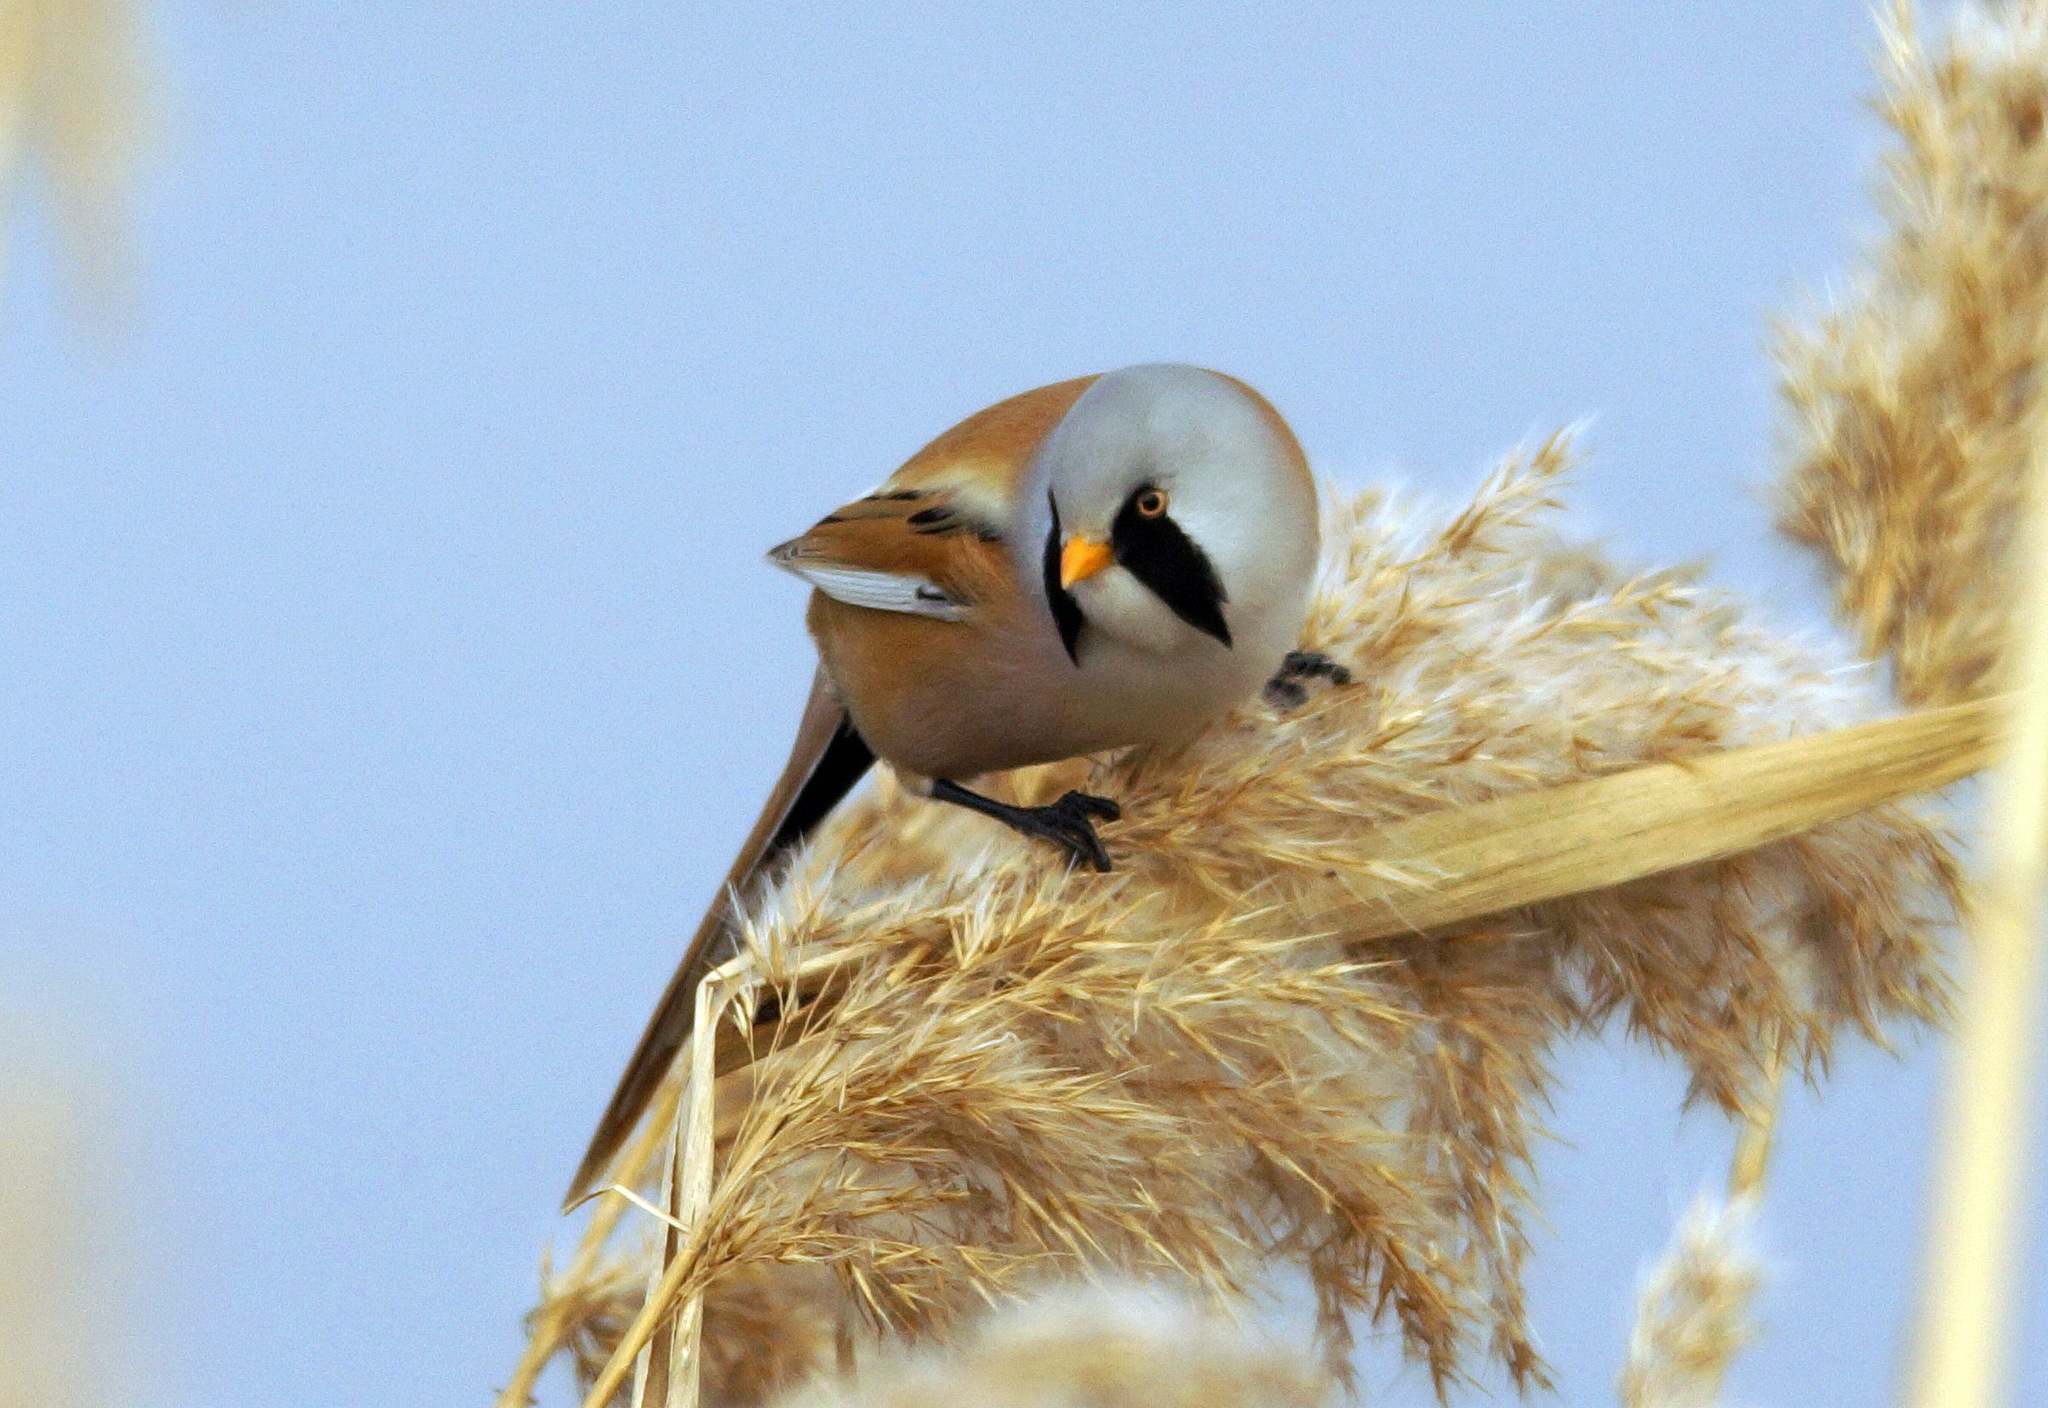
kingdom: Animalia
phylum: Chordata
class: Aves
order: Passeriformes
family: Panuridae
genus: Panurus
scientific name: Panurus biarmicus
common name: Bearded reedling
